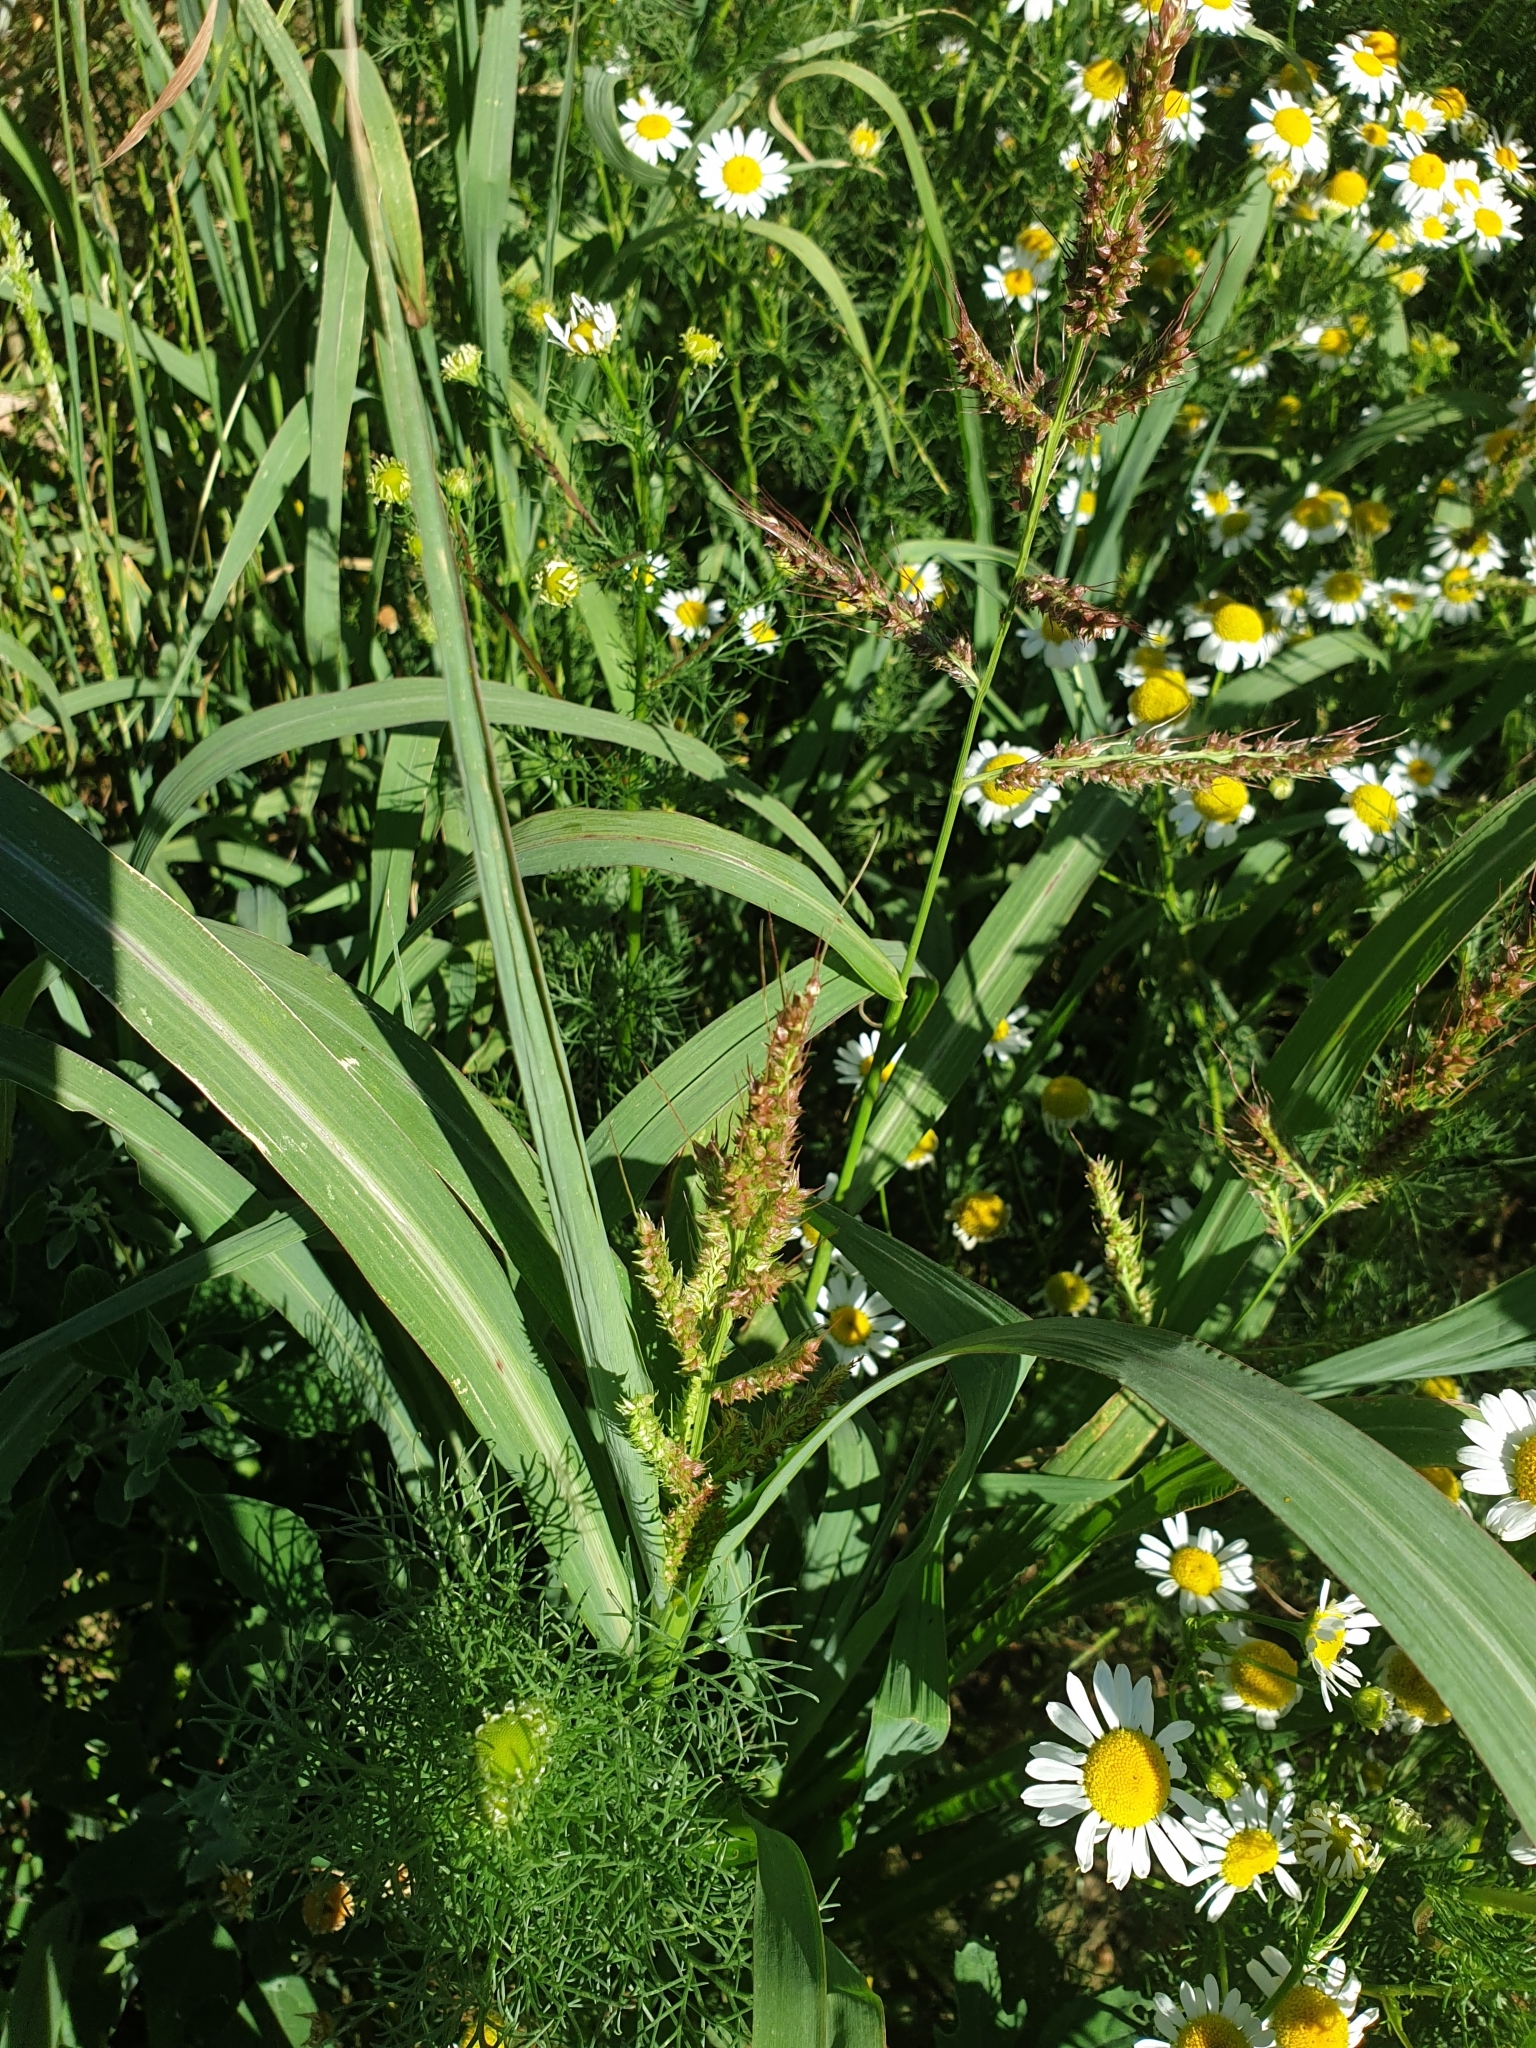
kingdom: Plantae
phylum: Tracheophyta
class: Liliopsida
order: Poales
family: Poaceae
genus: Echinochloa
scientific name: Echinochloa crus-galli
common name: Cockspur
